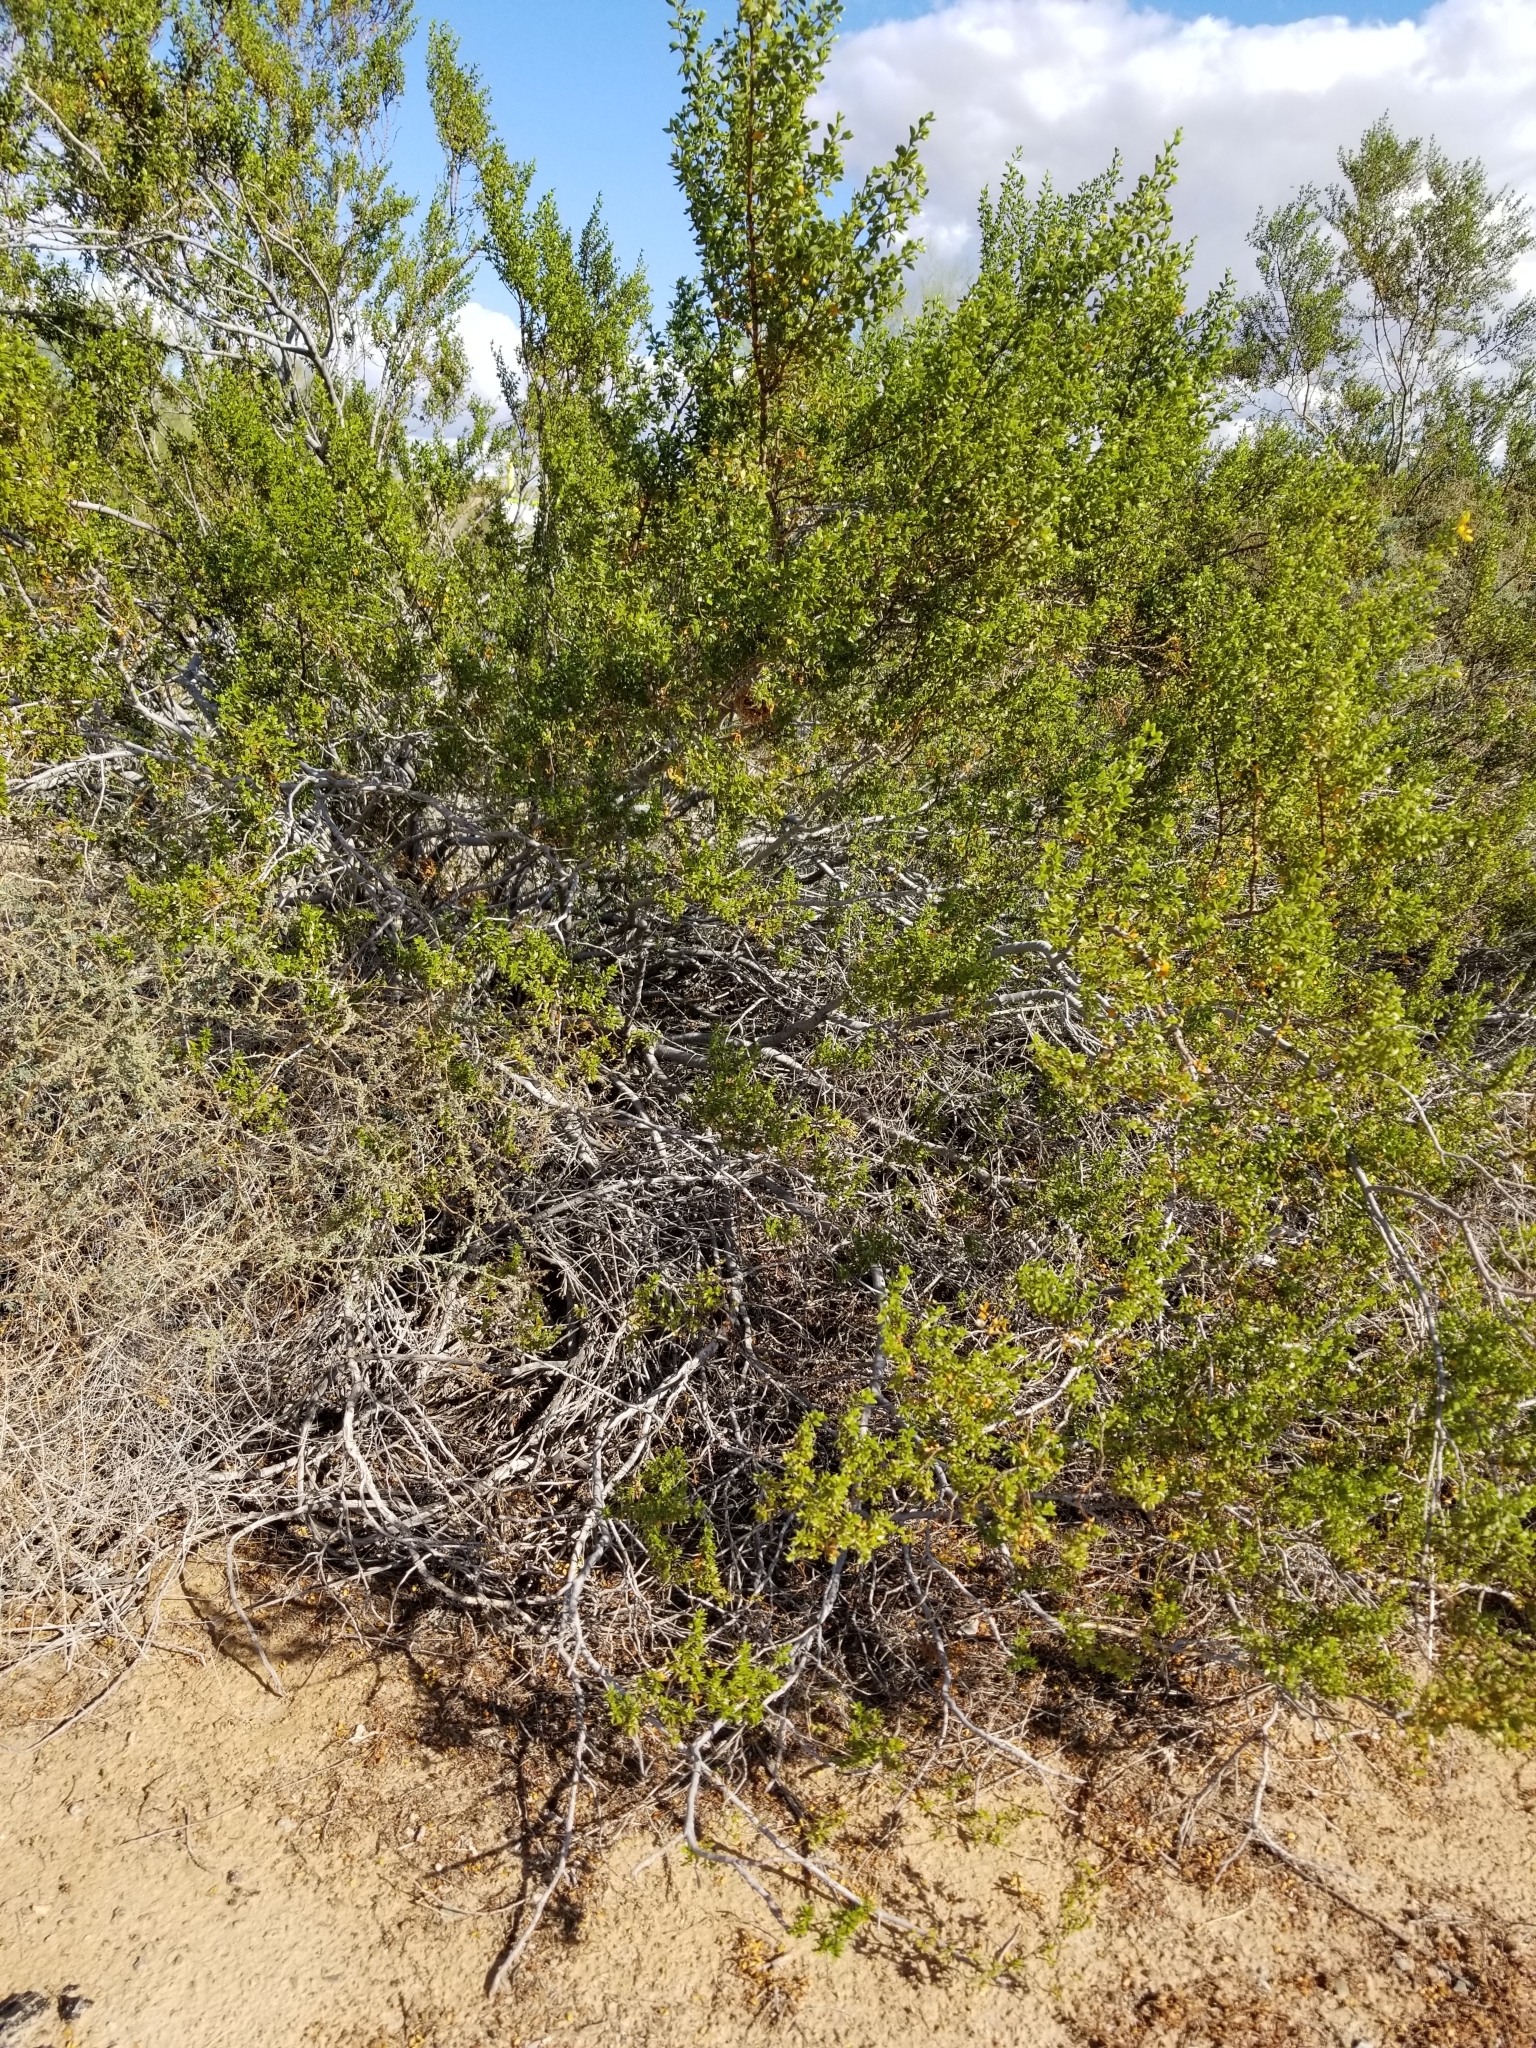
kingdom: Plantae
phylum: Tracheophyta
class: Magnoliopsida
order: Zygophyllales
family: Zygophyllaceae
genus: Larrea
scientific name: Larrea tridentata
